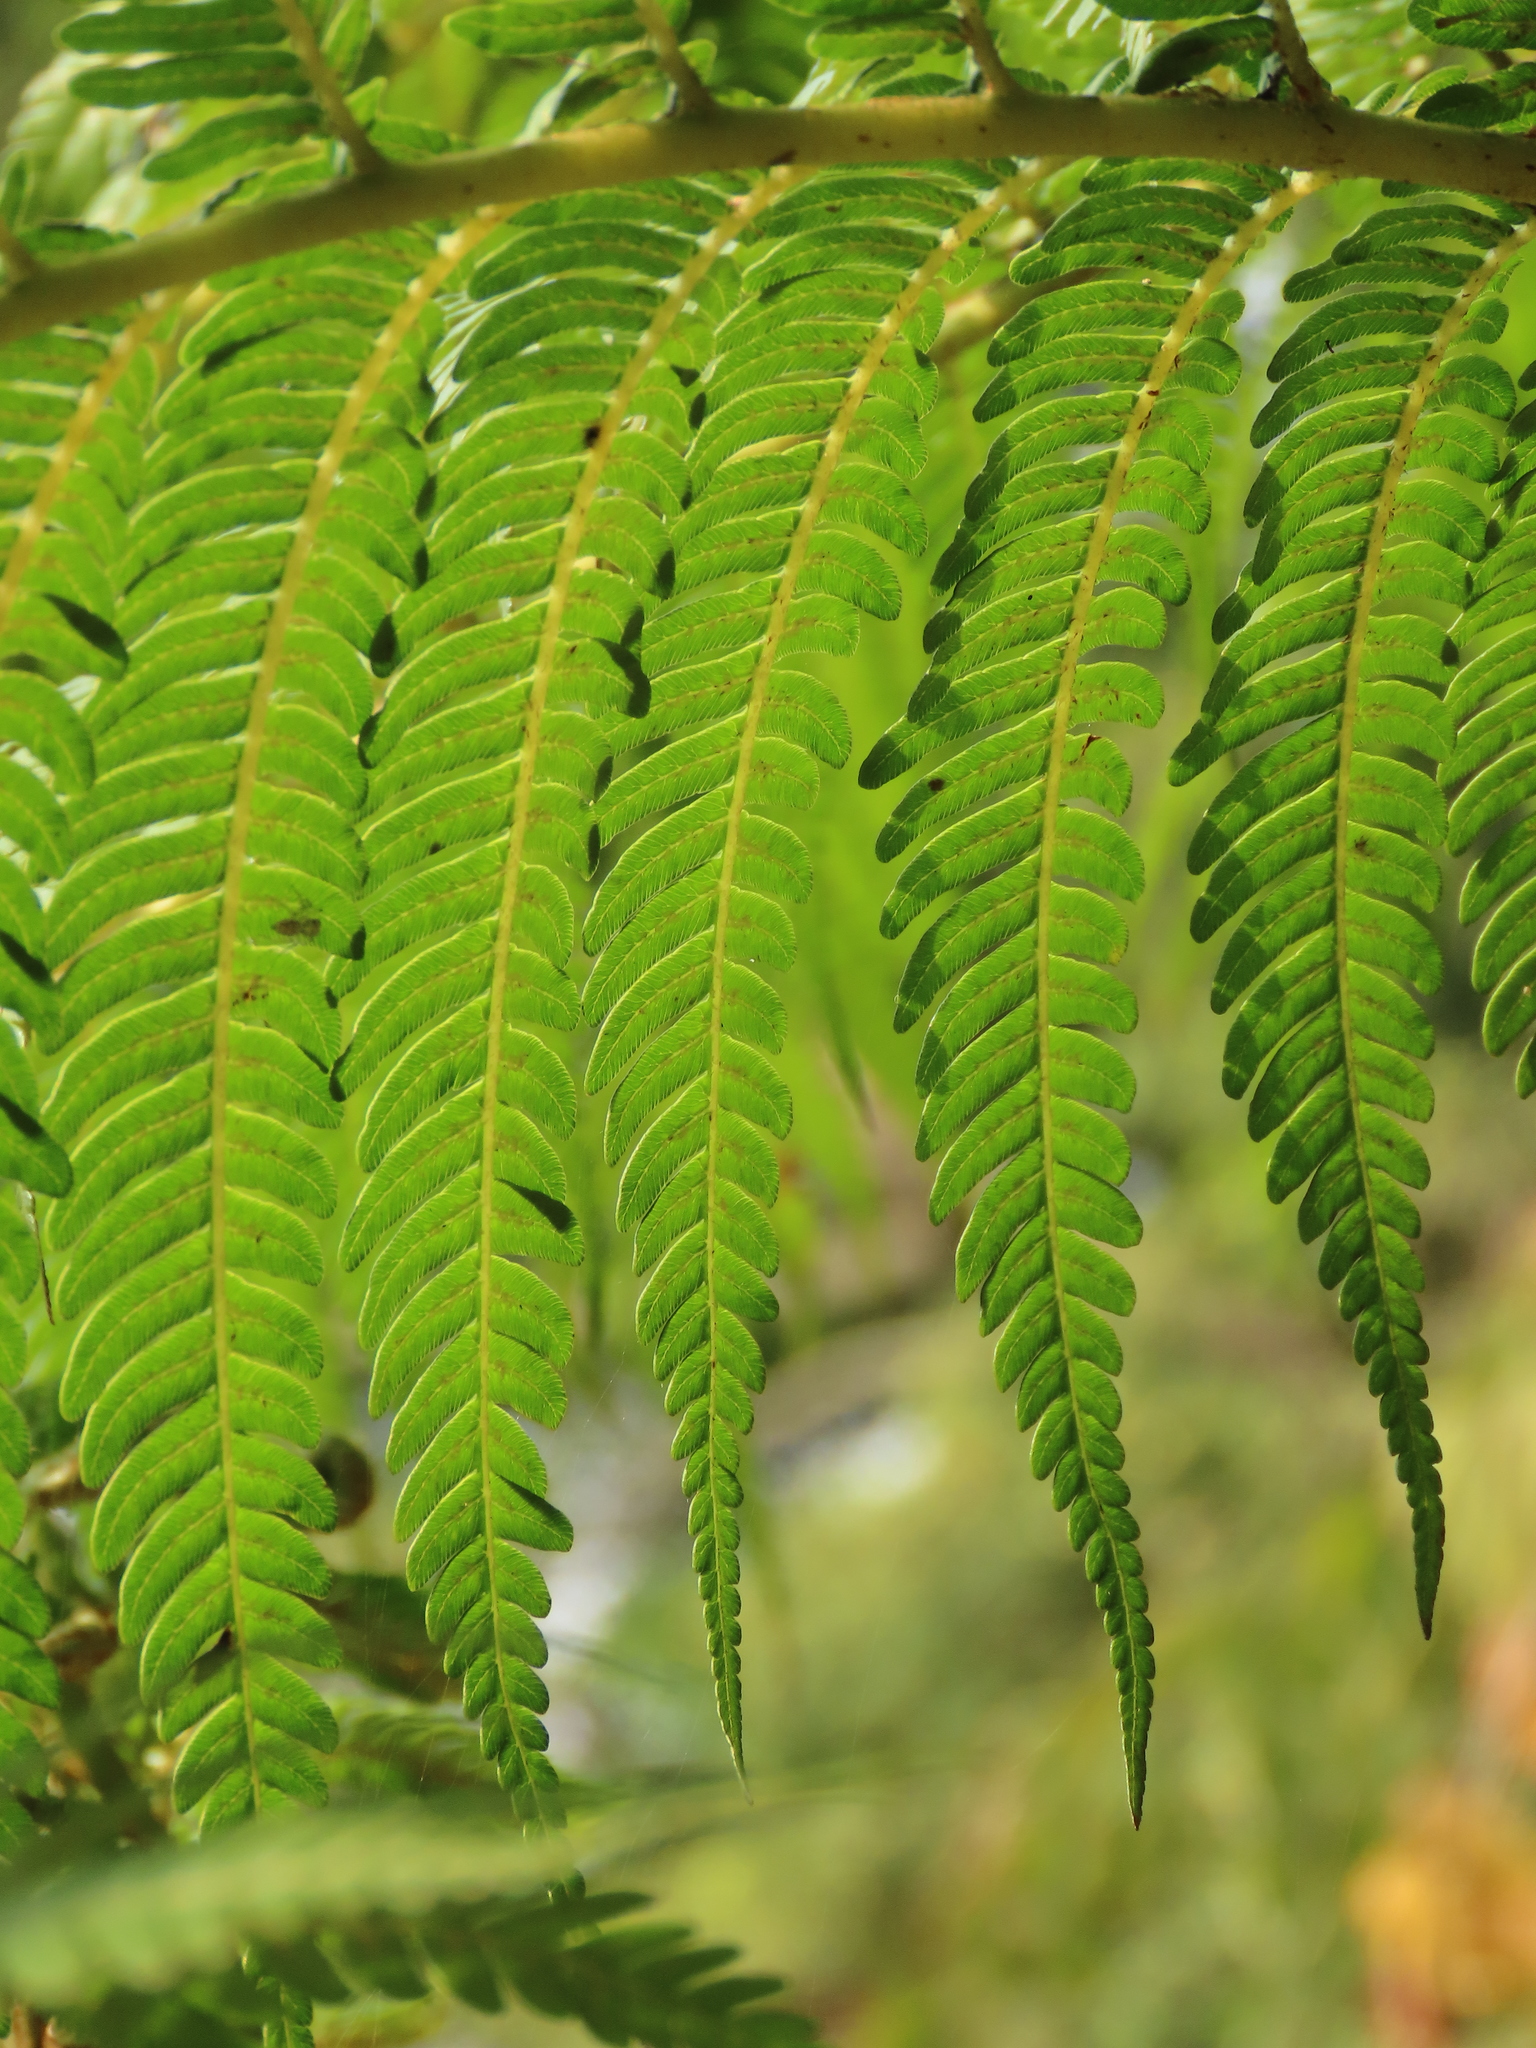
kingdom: Plantae
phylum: Tracheophyta
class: Polypodiopsida
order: Cyatheales
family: Cyatheaceae
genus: Alsophila
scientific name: Alsophila lepifera
